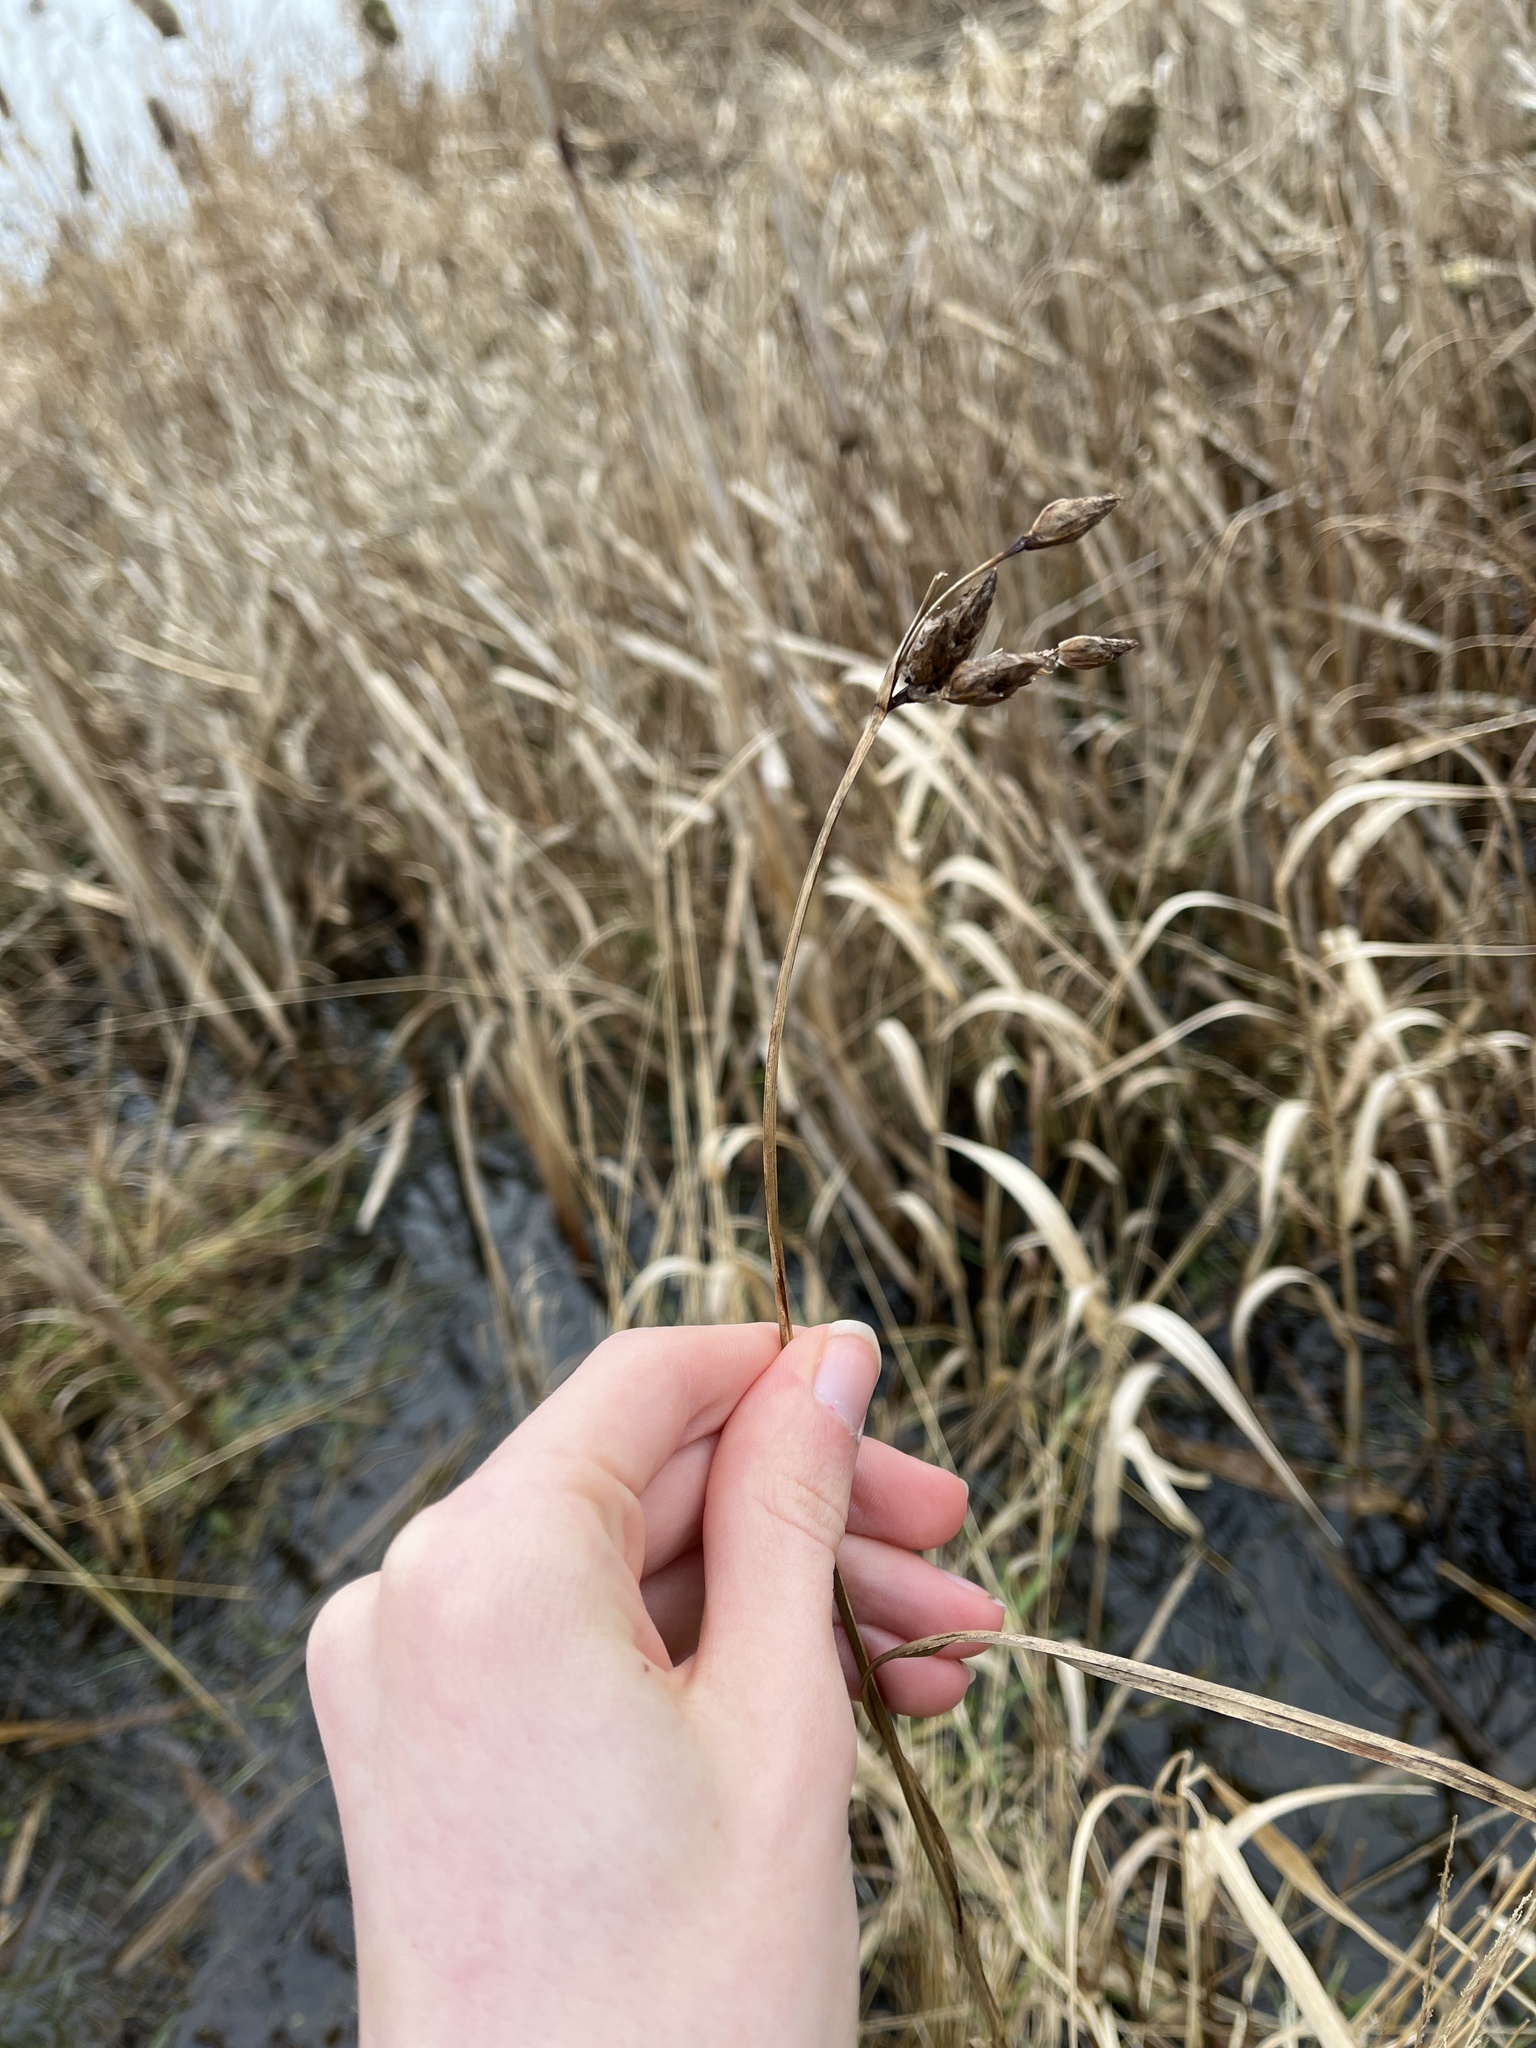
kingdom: Plantae
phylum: Tracheophyta
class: Liliopsida
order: Poales
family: Cyperaceae
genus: Bolboschoenus
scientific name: Bolboschoenus maritimus
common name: Sea club-rush
